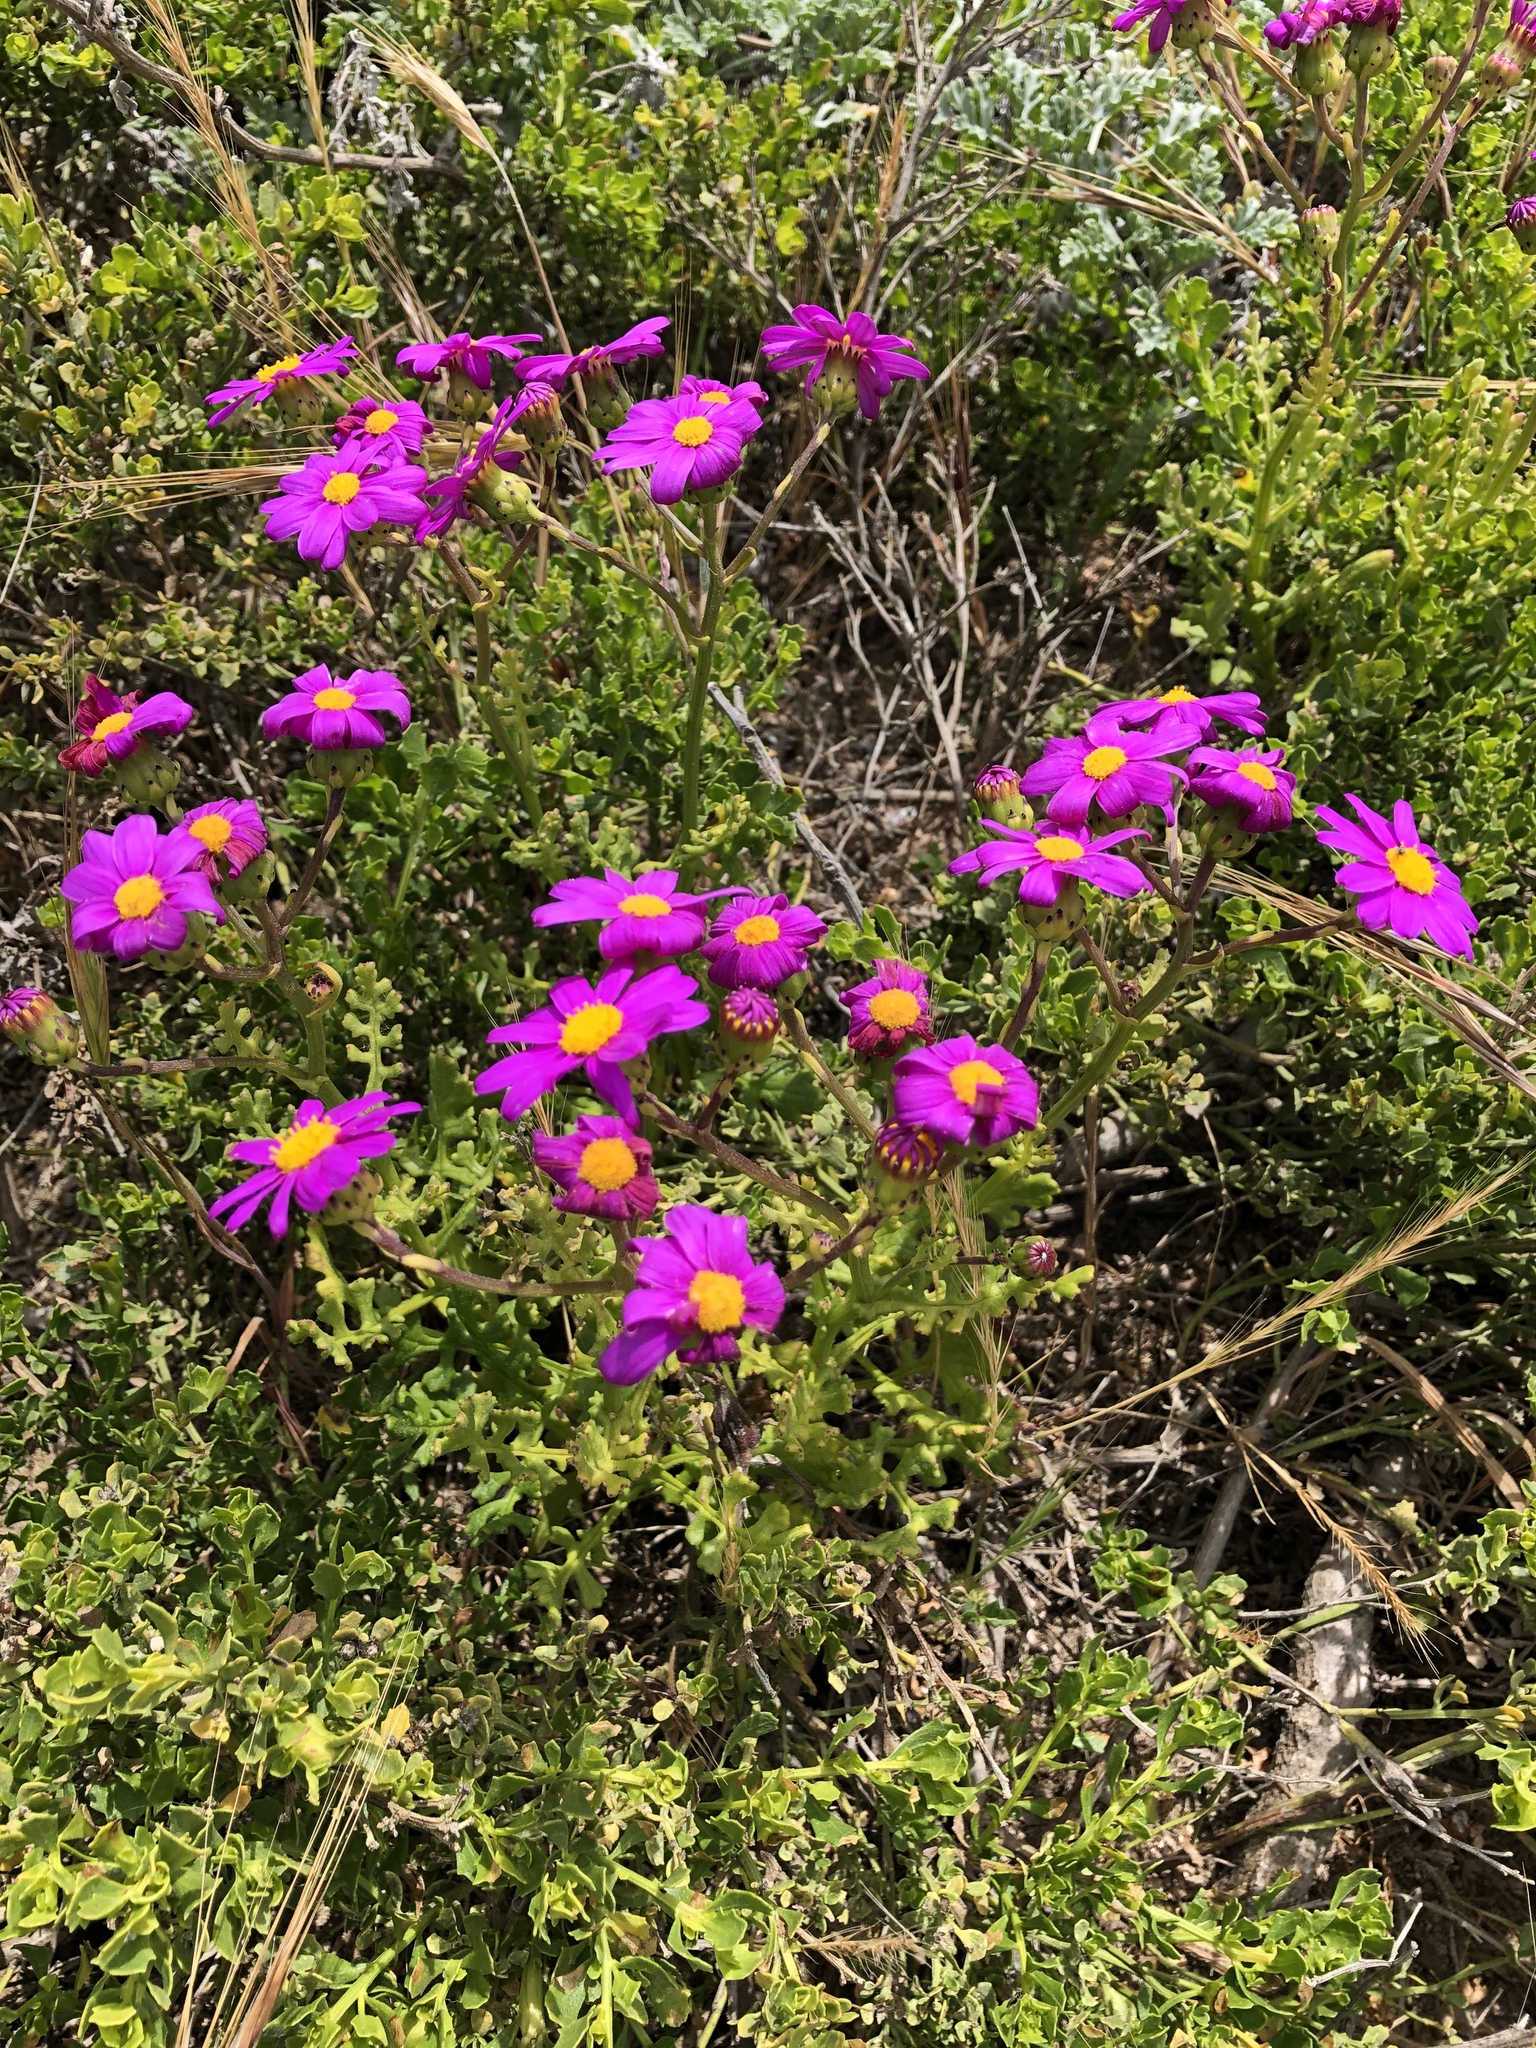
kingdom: Plantae
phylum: Tracheophyta
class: Magnoliopsida
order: Asterales
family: Asteraceae
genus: Senecio
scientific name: Senecio elegans
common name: Purple groundsel
